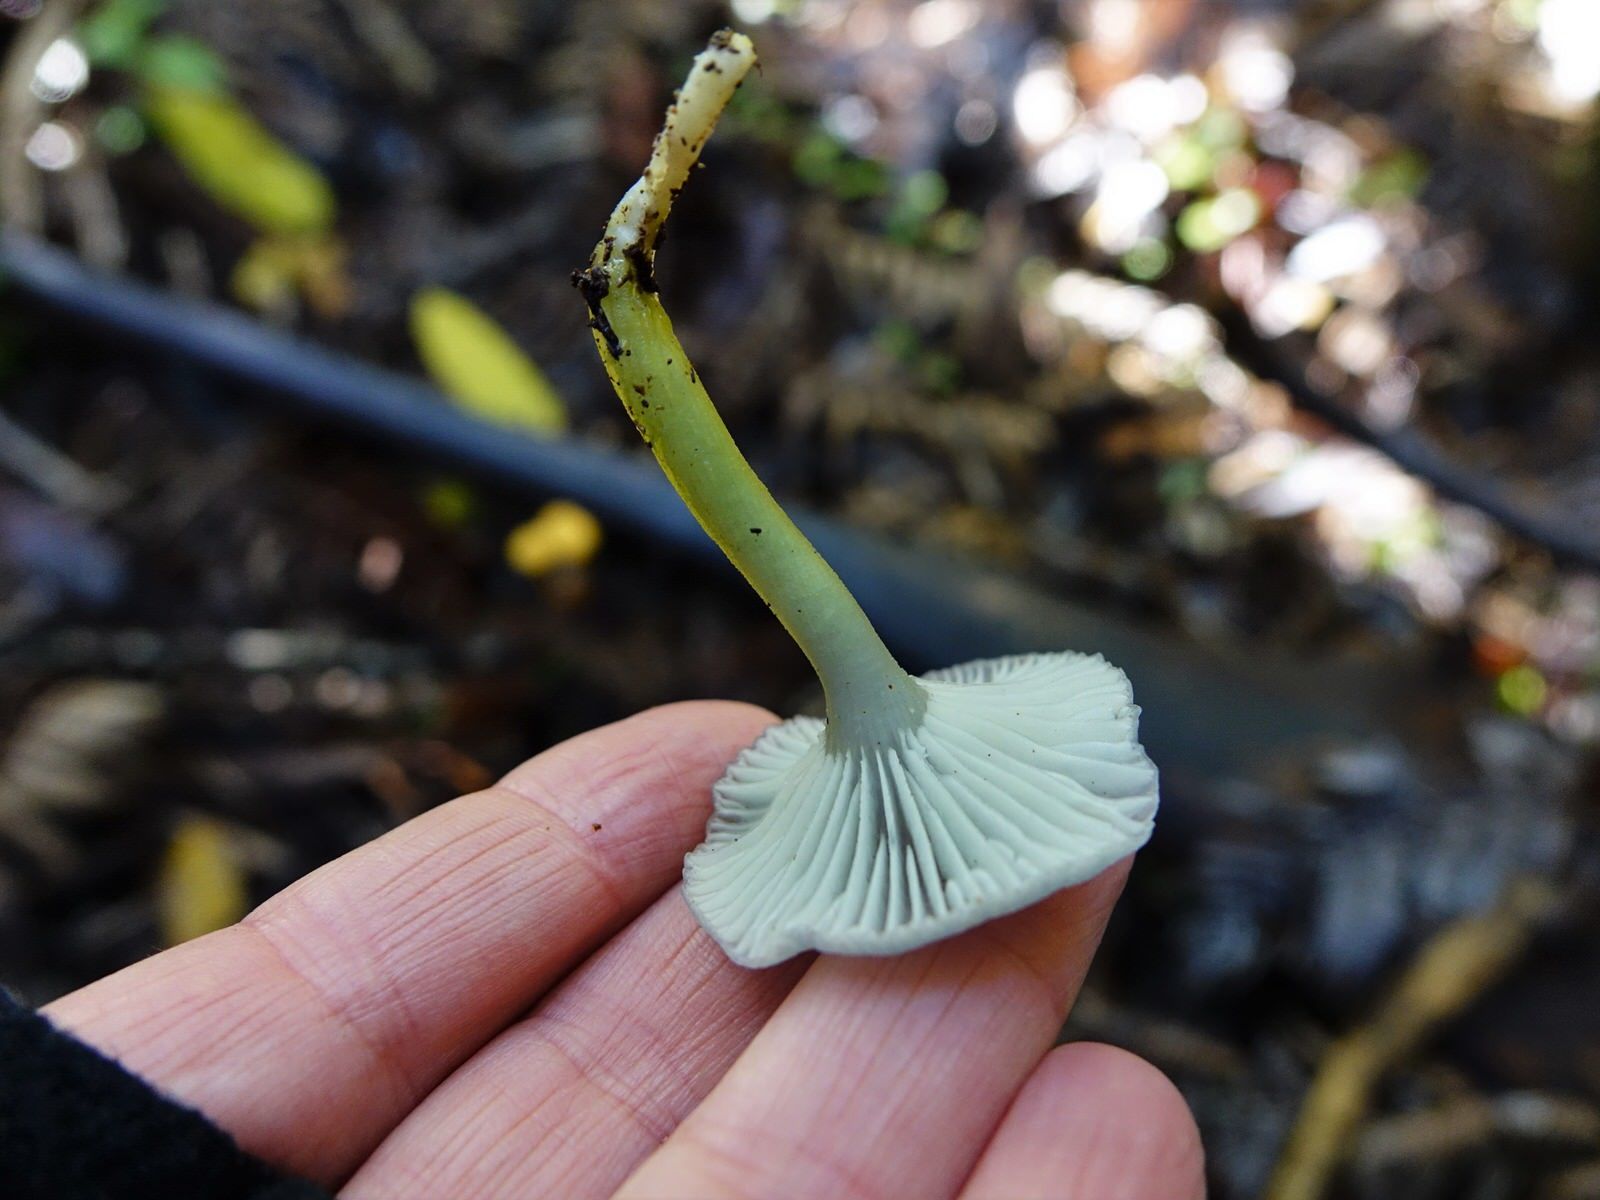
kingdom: Fungi
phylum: Basidiomycota
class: Agaricomycetes
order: Agaricales
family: Hygrophoraceae
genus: Gliophorus
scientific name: Gliophorus lilacipes
